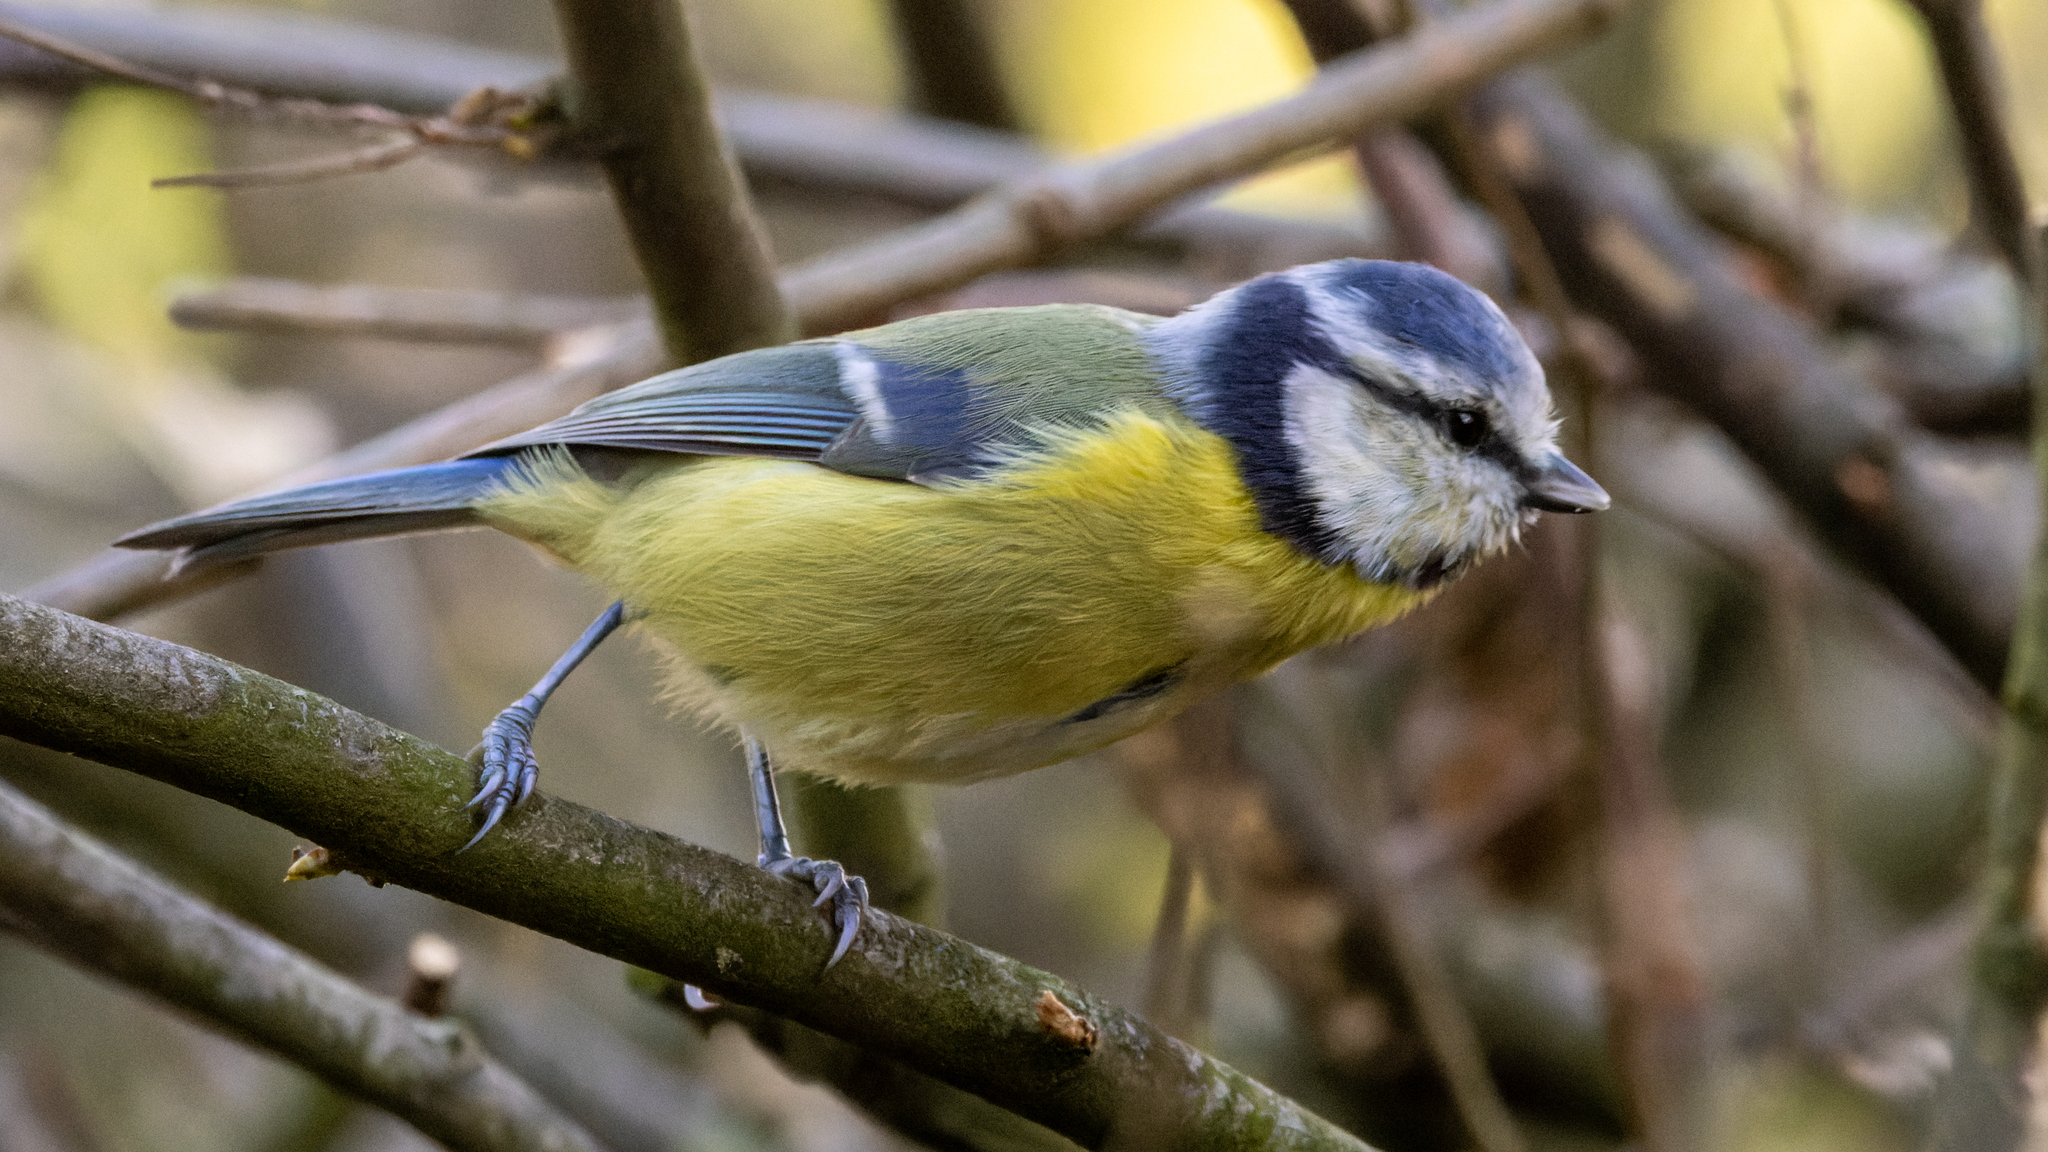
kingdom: Animalia
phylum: Chordata
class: Aves
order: Passeriformes
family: Paridae
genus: Cyanistes
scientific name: Cyanistes caeruleus
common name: Eurasian blue tit
